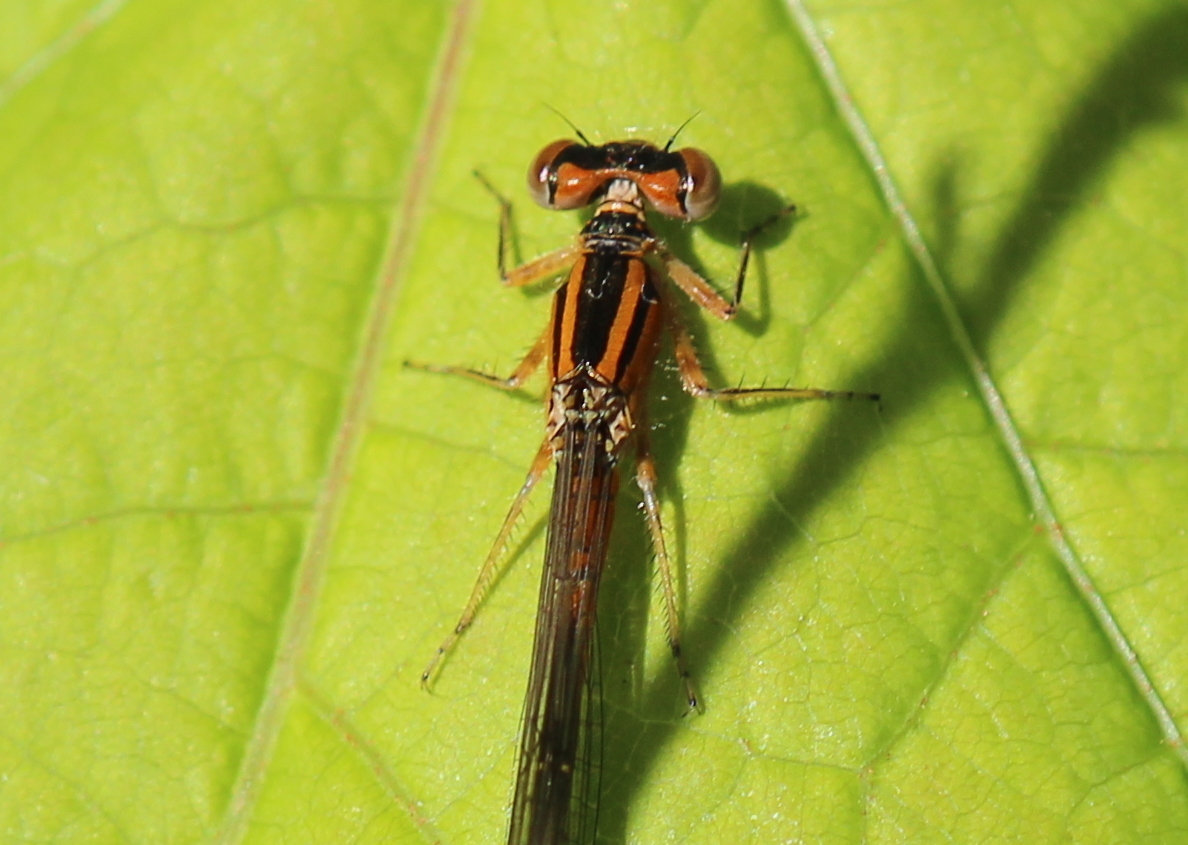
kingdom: Animalia
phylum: Arthropoda
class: Insecta
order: Odonata
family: Coenagrionidae
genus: Ischnura
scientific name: Ischnura verticalis
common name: Eastern forktail
